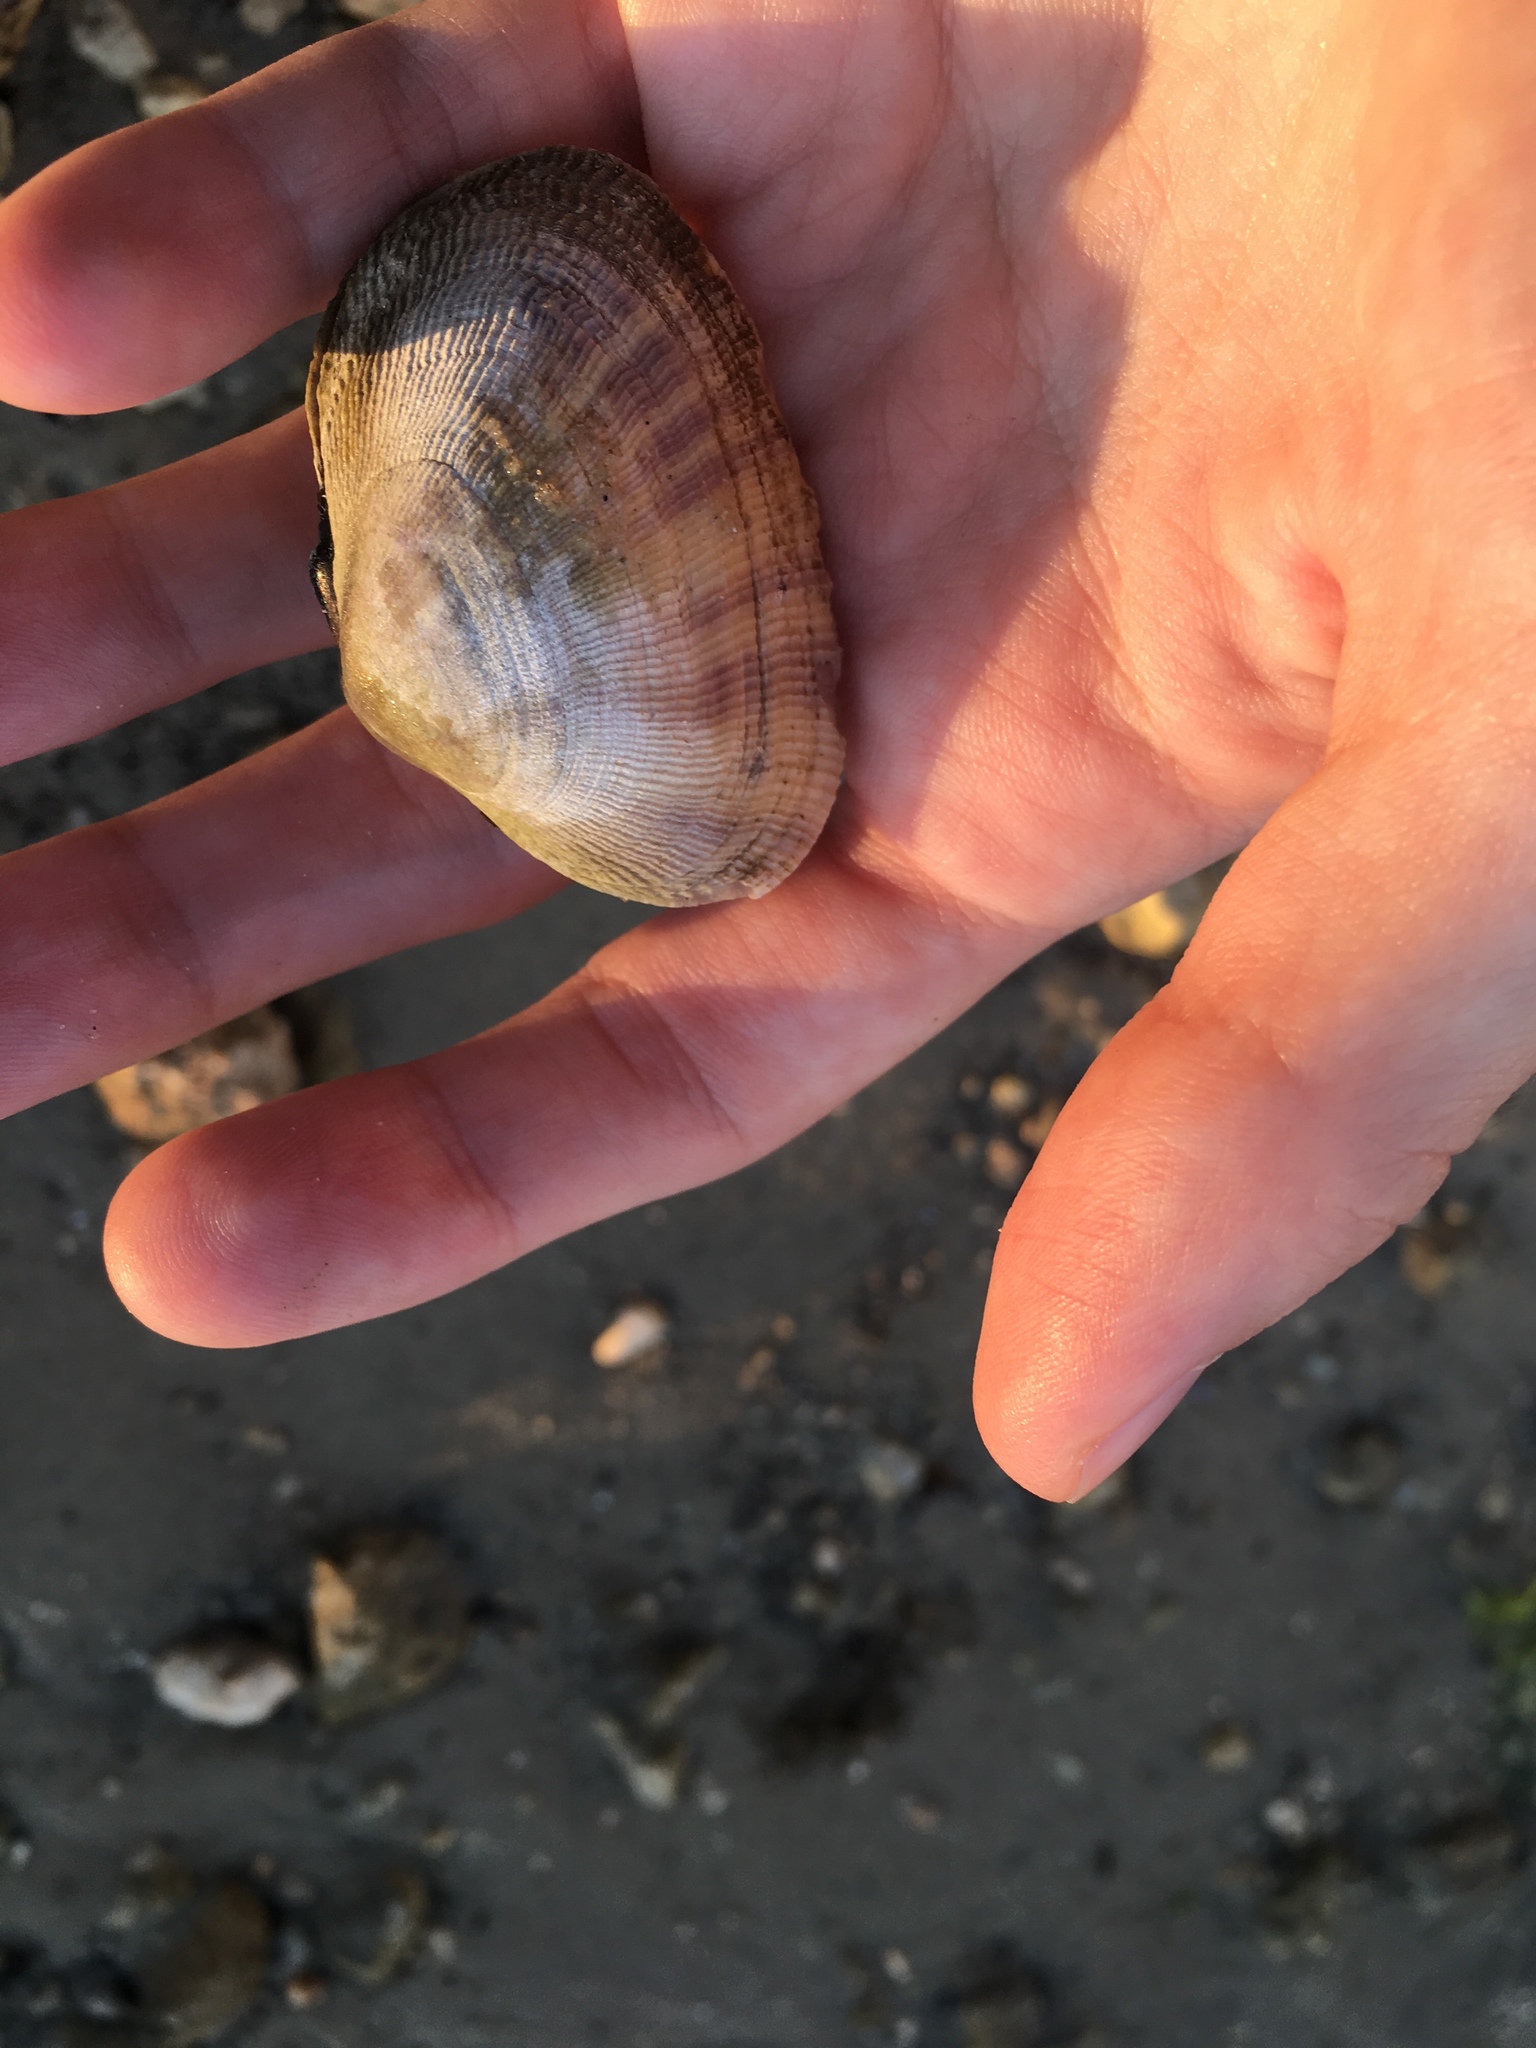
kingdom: Animalia
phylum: Mollusca
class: Bivalvia
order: Cardiida
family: Psammobiidae
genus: Asaphis
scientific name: Asaphis deflorata
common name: Gaudy asaphis
